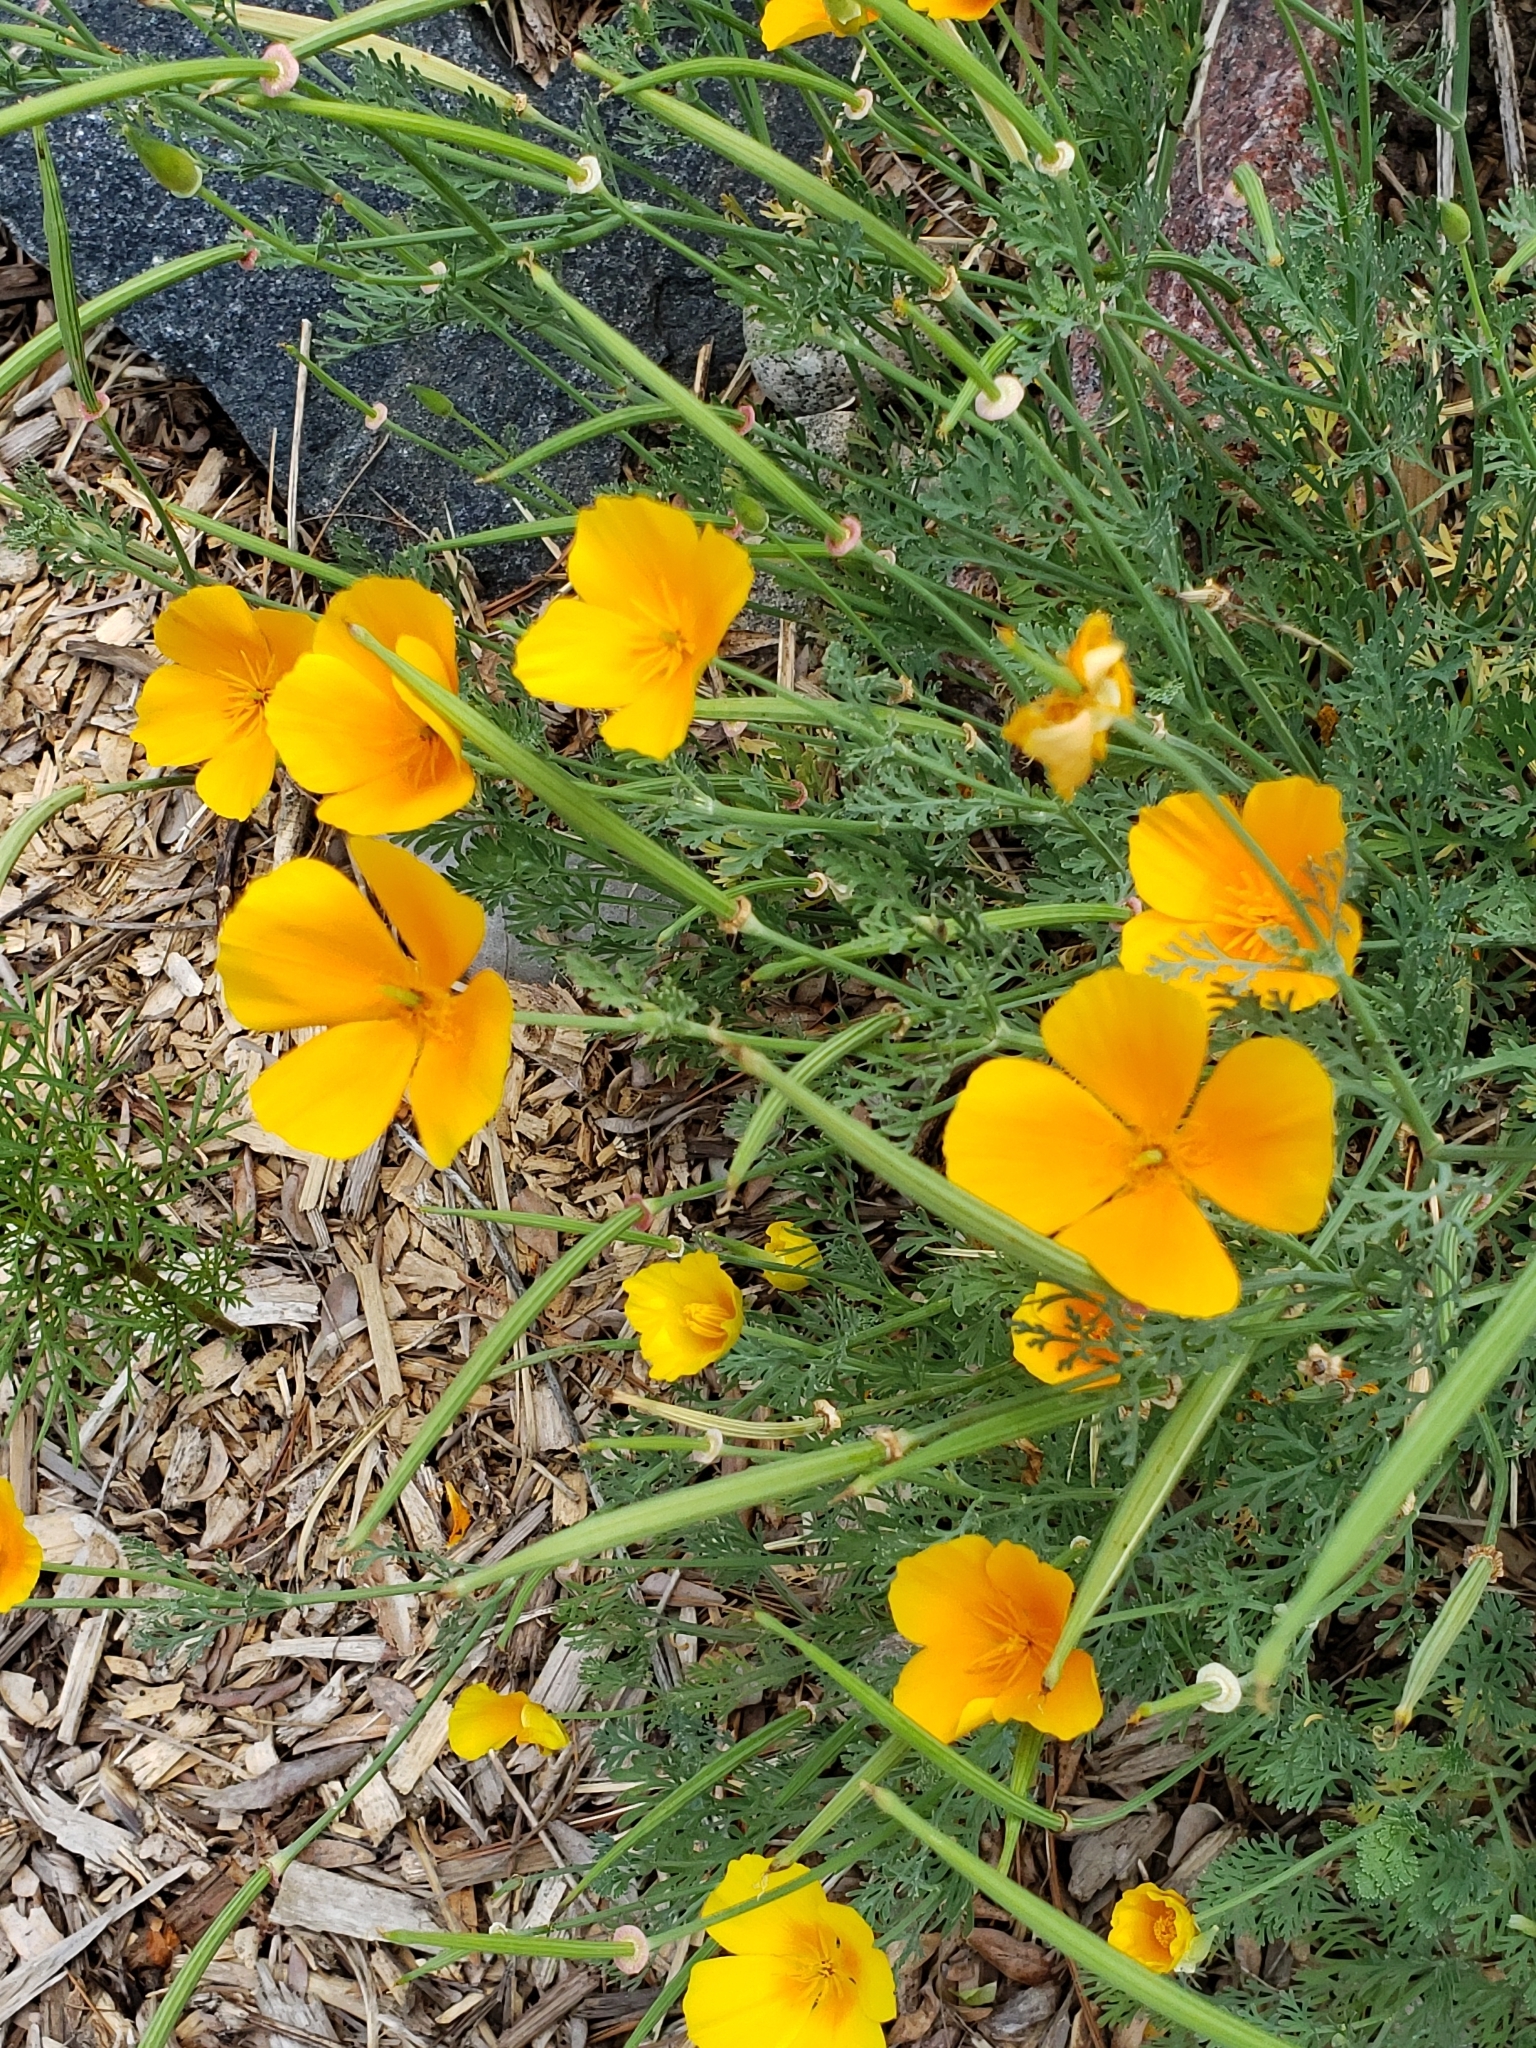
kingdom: Plantae
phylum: Tracheophyta
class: Magnoliopsida
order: Ranunculales
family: Papaveraceae
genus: Eschscholzia
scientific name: Eschscholzia californica
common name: California poppy
